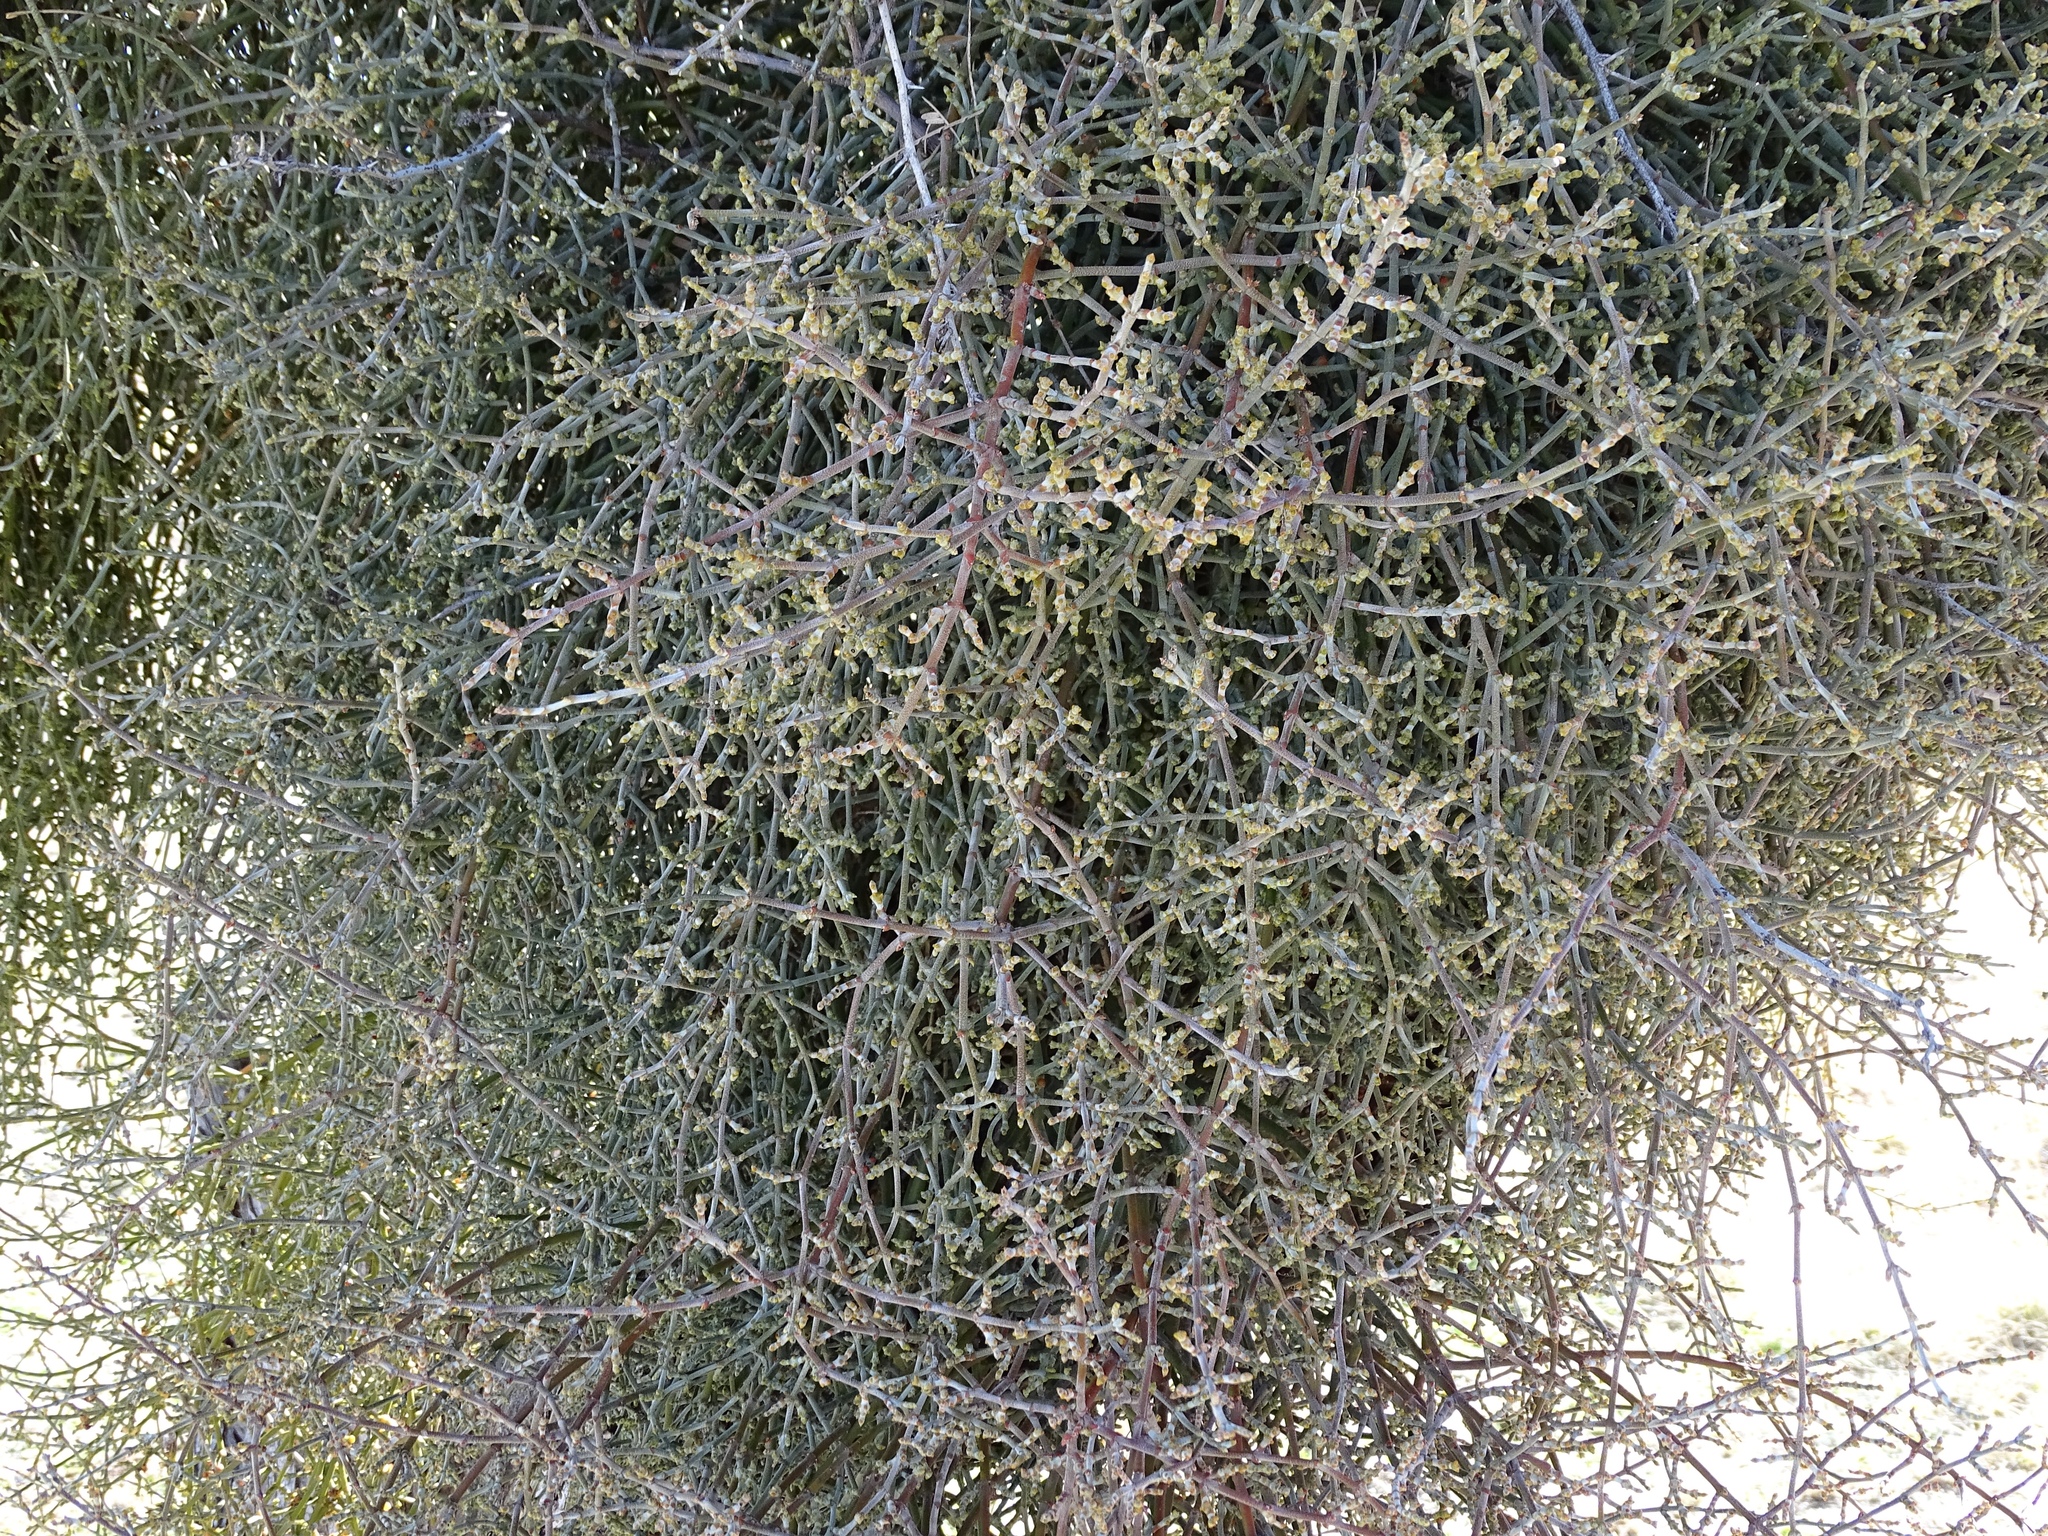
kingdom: Plantae
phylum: Tracheophyta
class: Magnoliopsida
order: Santalales
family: Viscaceae
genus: Phoradendron
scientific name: Phoradendron californicum
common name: Acacia mistletoe
